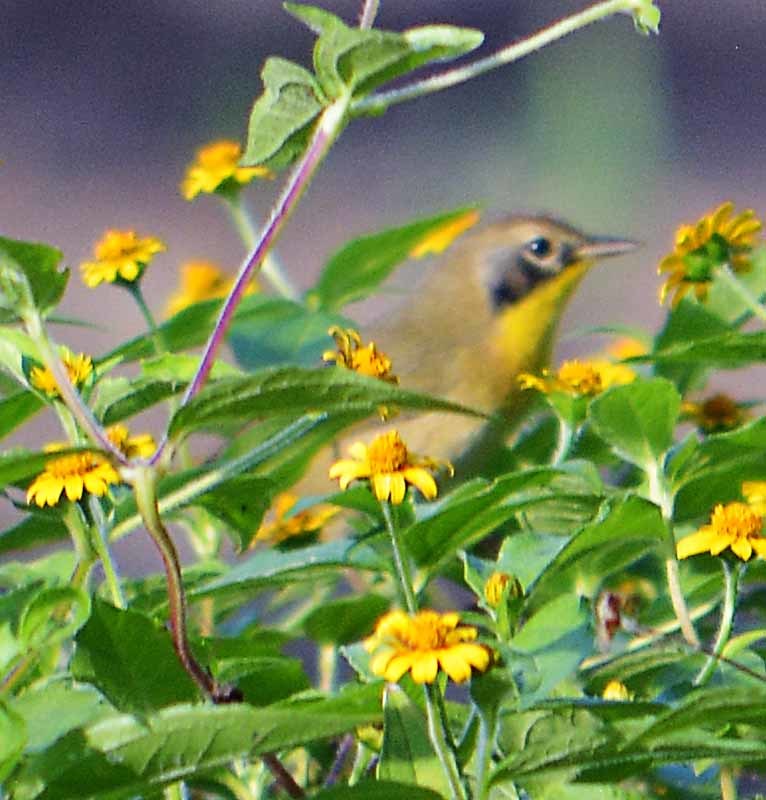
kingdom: Animalia
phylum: Chordata
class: Aves
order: Passeriformes
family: Parulidae
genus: Geothlypis
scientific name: Geothlypis trichas
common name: Common yellowthroat
